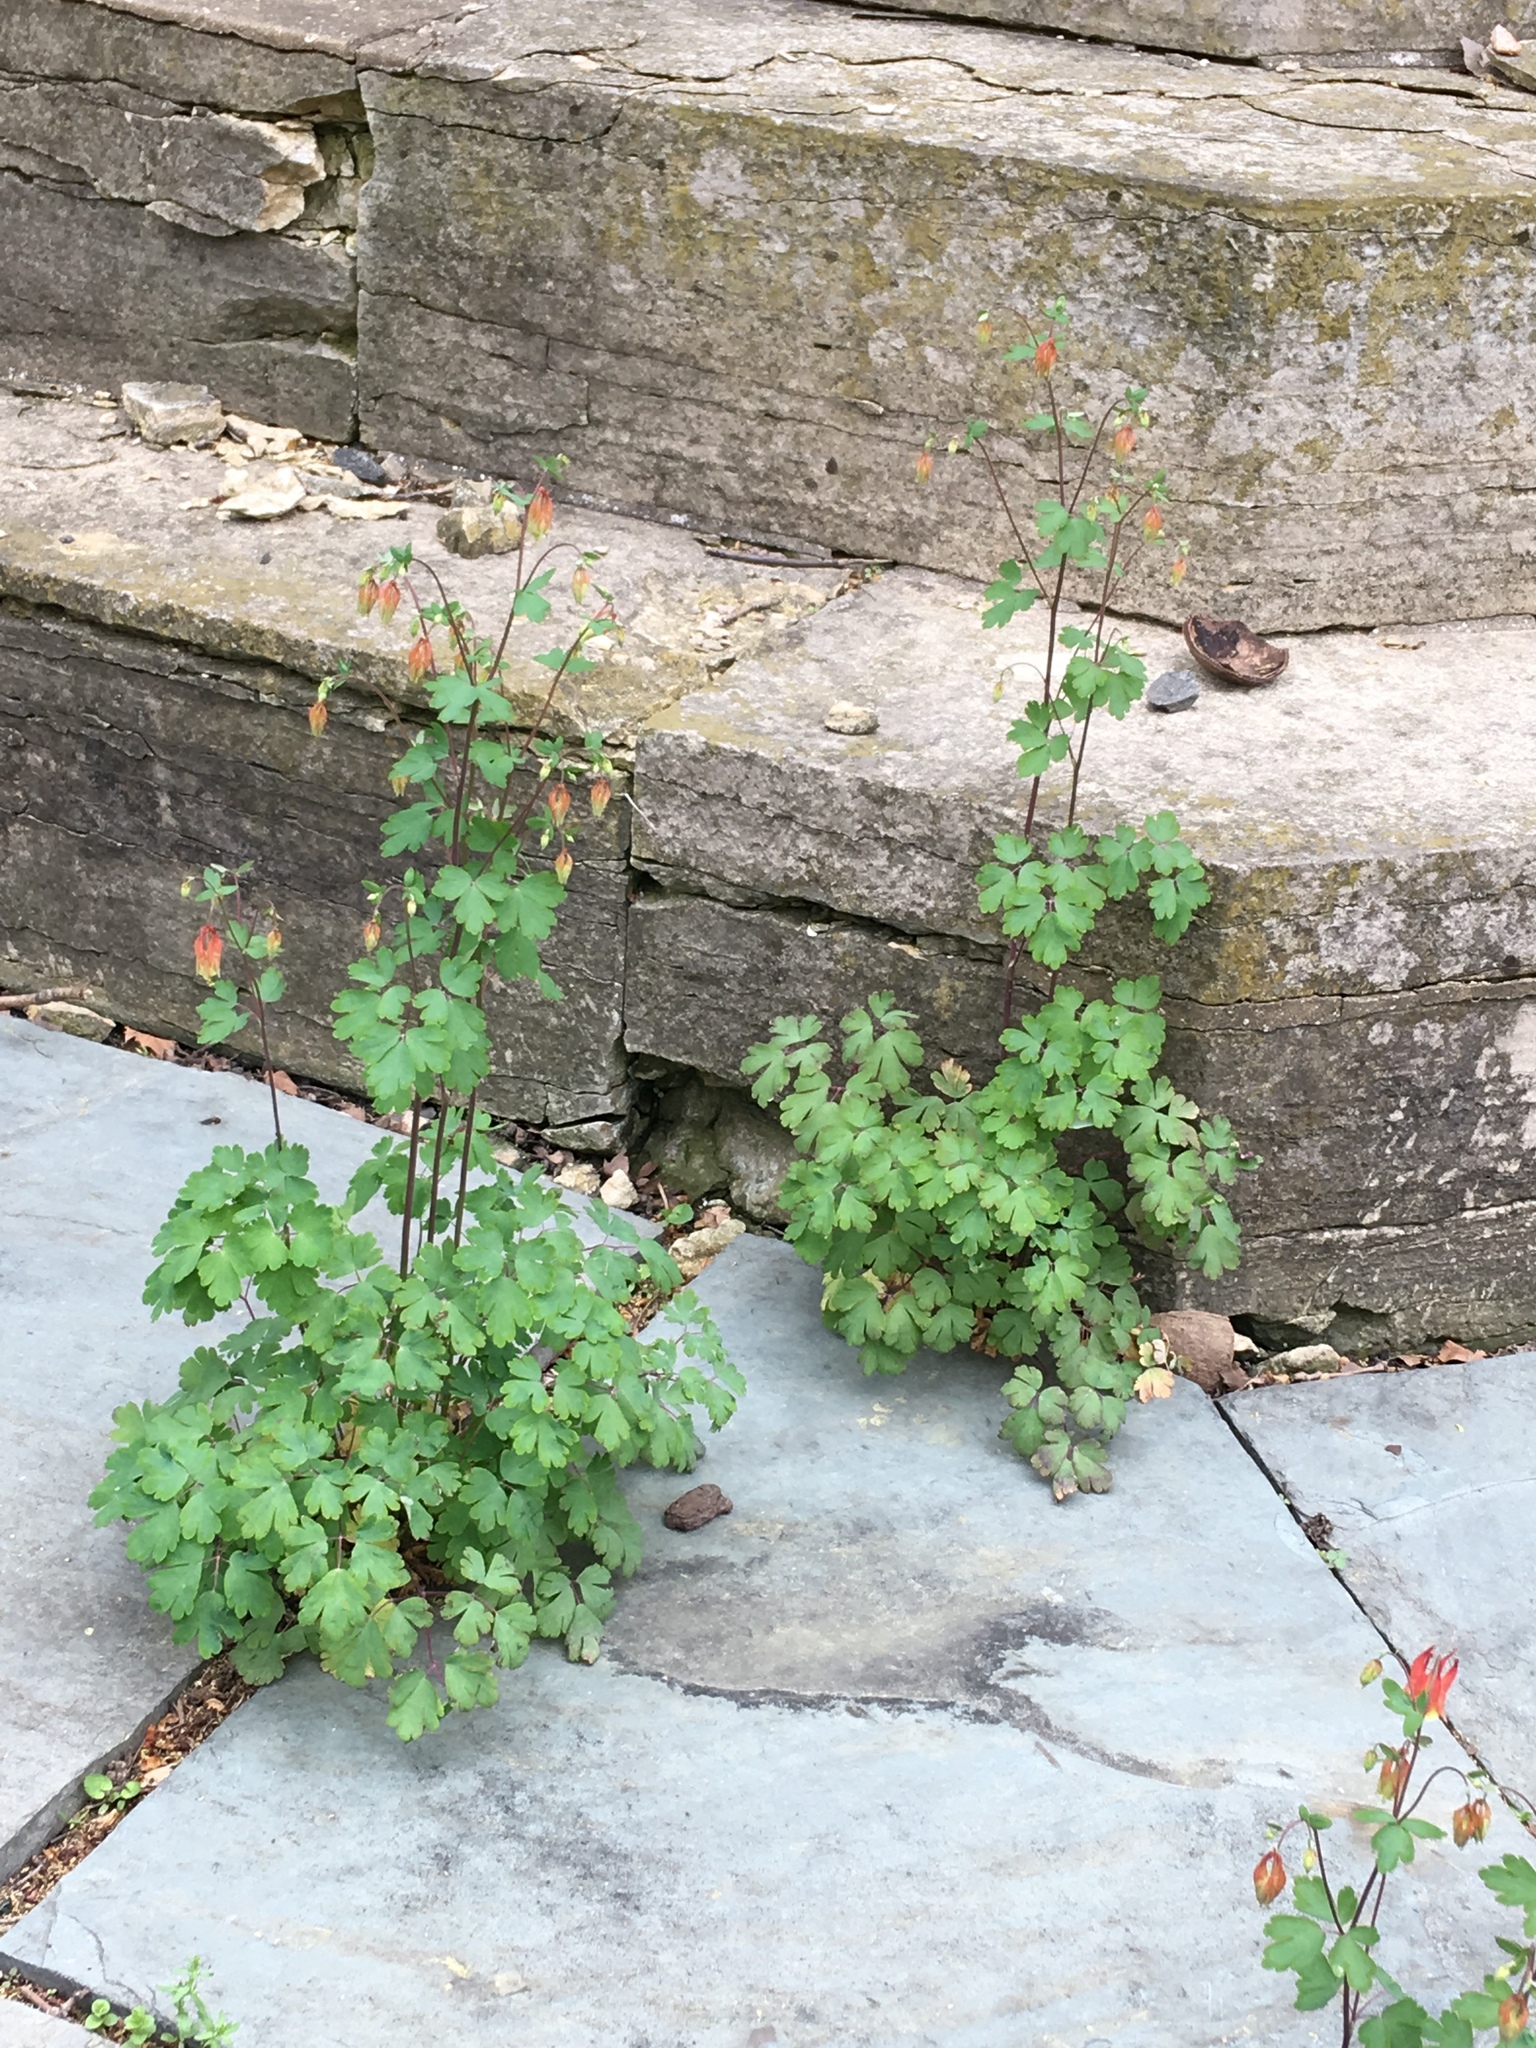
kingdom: Plantae
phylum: Tracheophyta
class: Magnoliopsida
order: Ranunculales
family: Ranunculaceae
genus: Aquilegia
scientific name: Aquilegia canadensis
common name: American columbine
